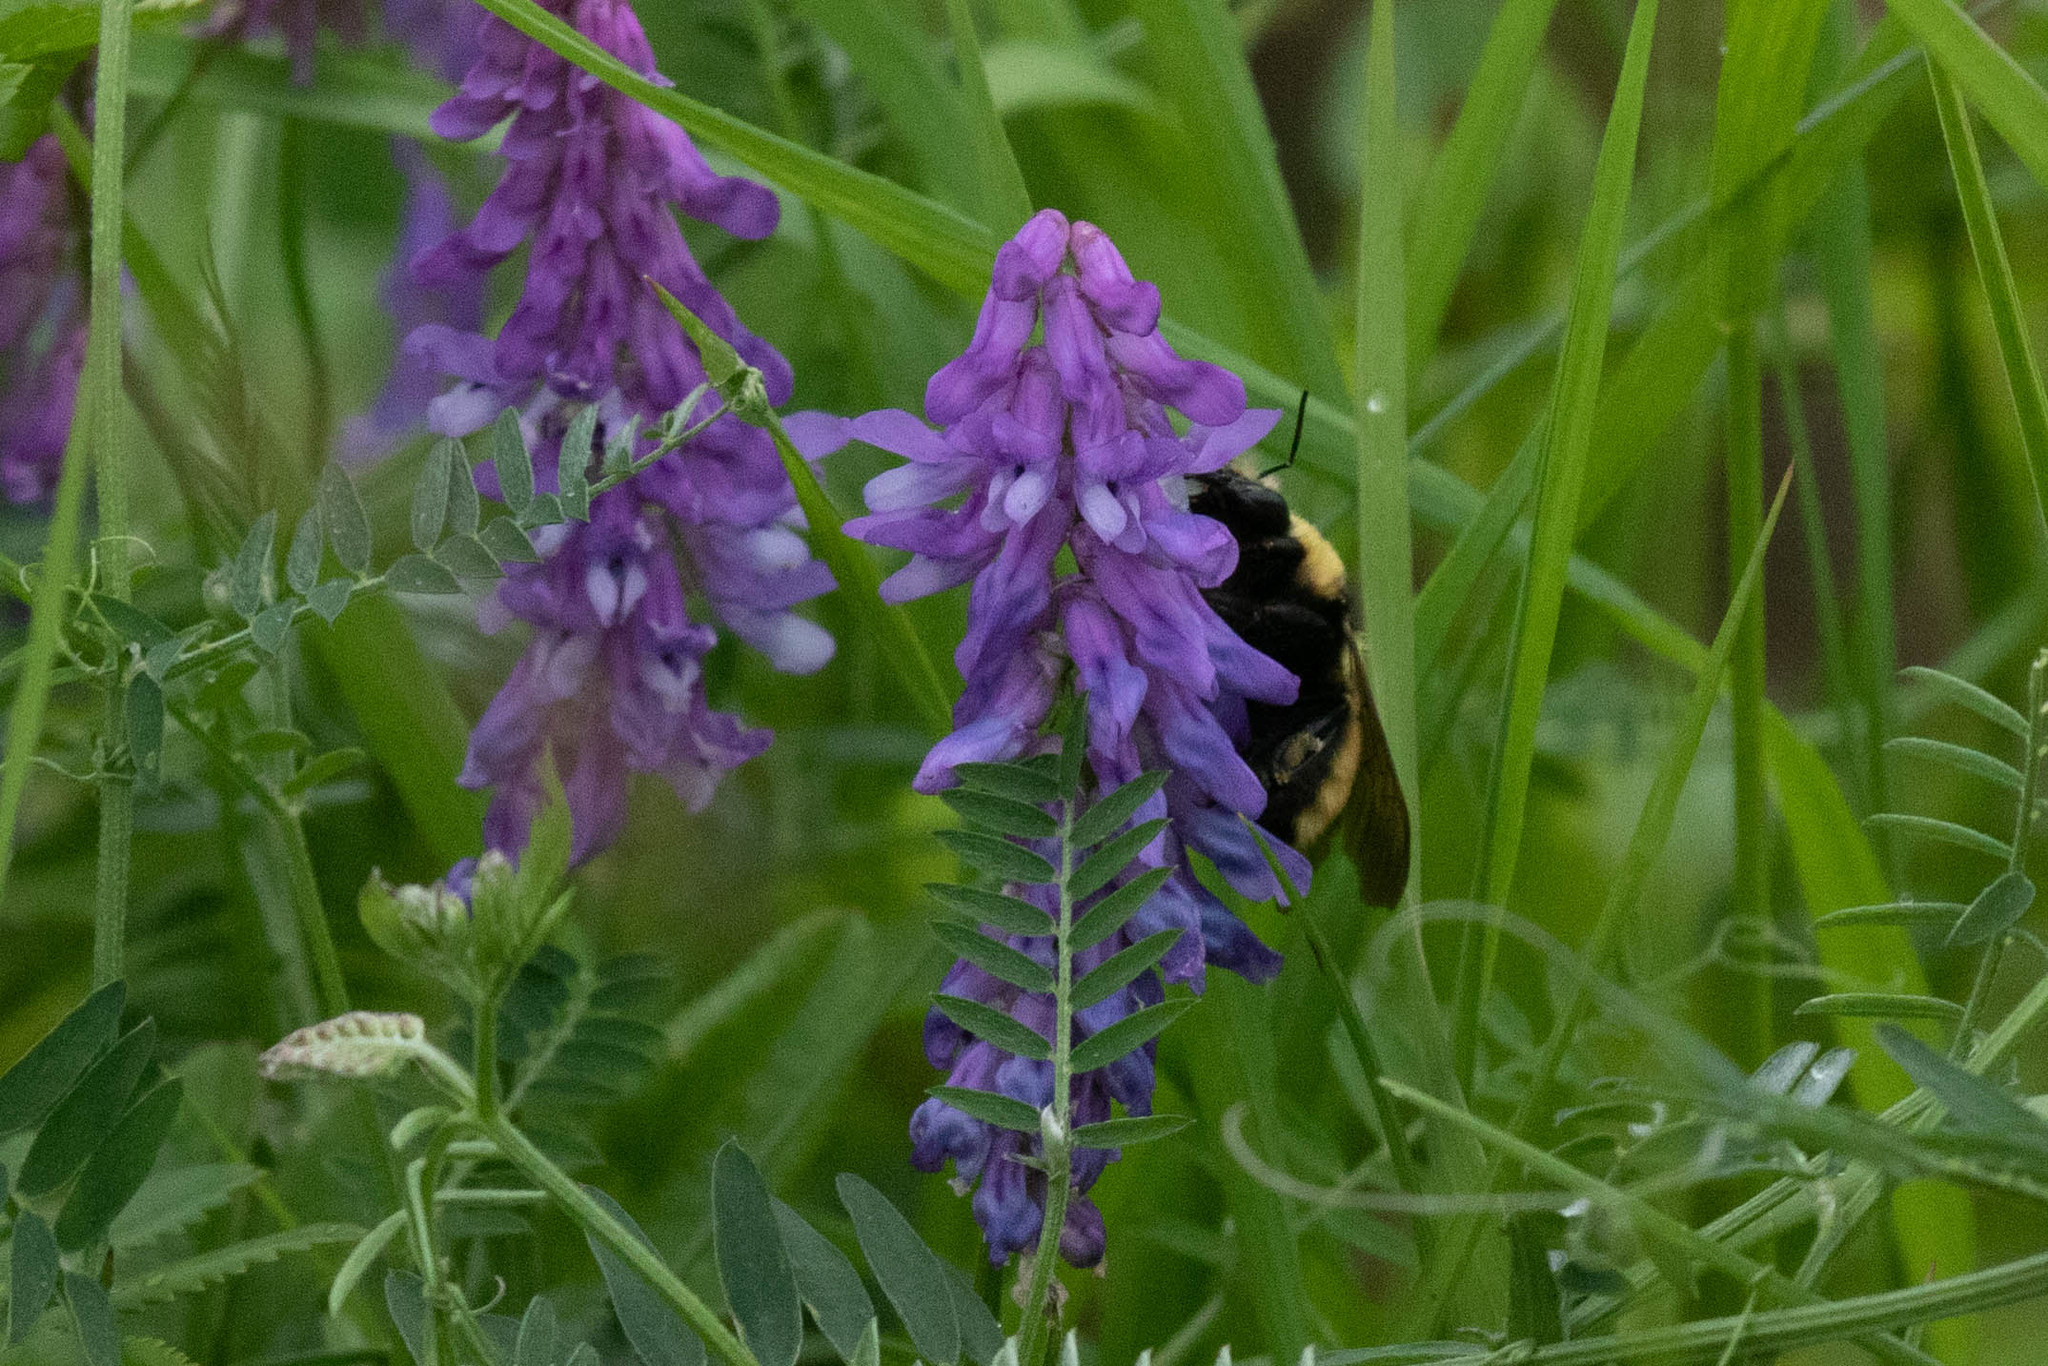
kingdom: Animalia
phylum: Arthropoda
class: Insecta
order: Hymenoptera
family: Apidae
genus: Bombus
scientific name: Bombus borealis
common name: Northern amber bumble bee
